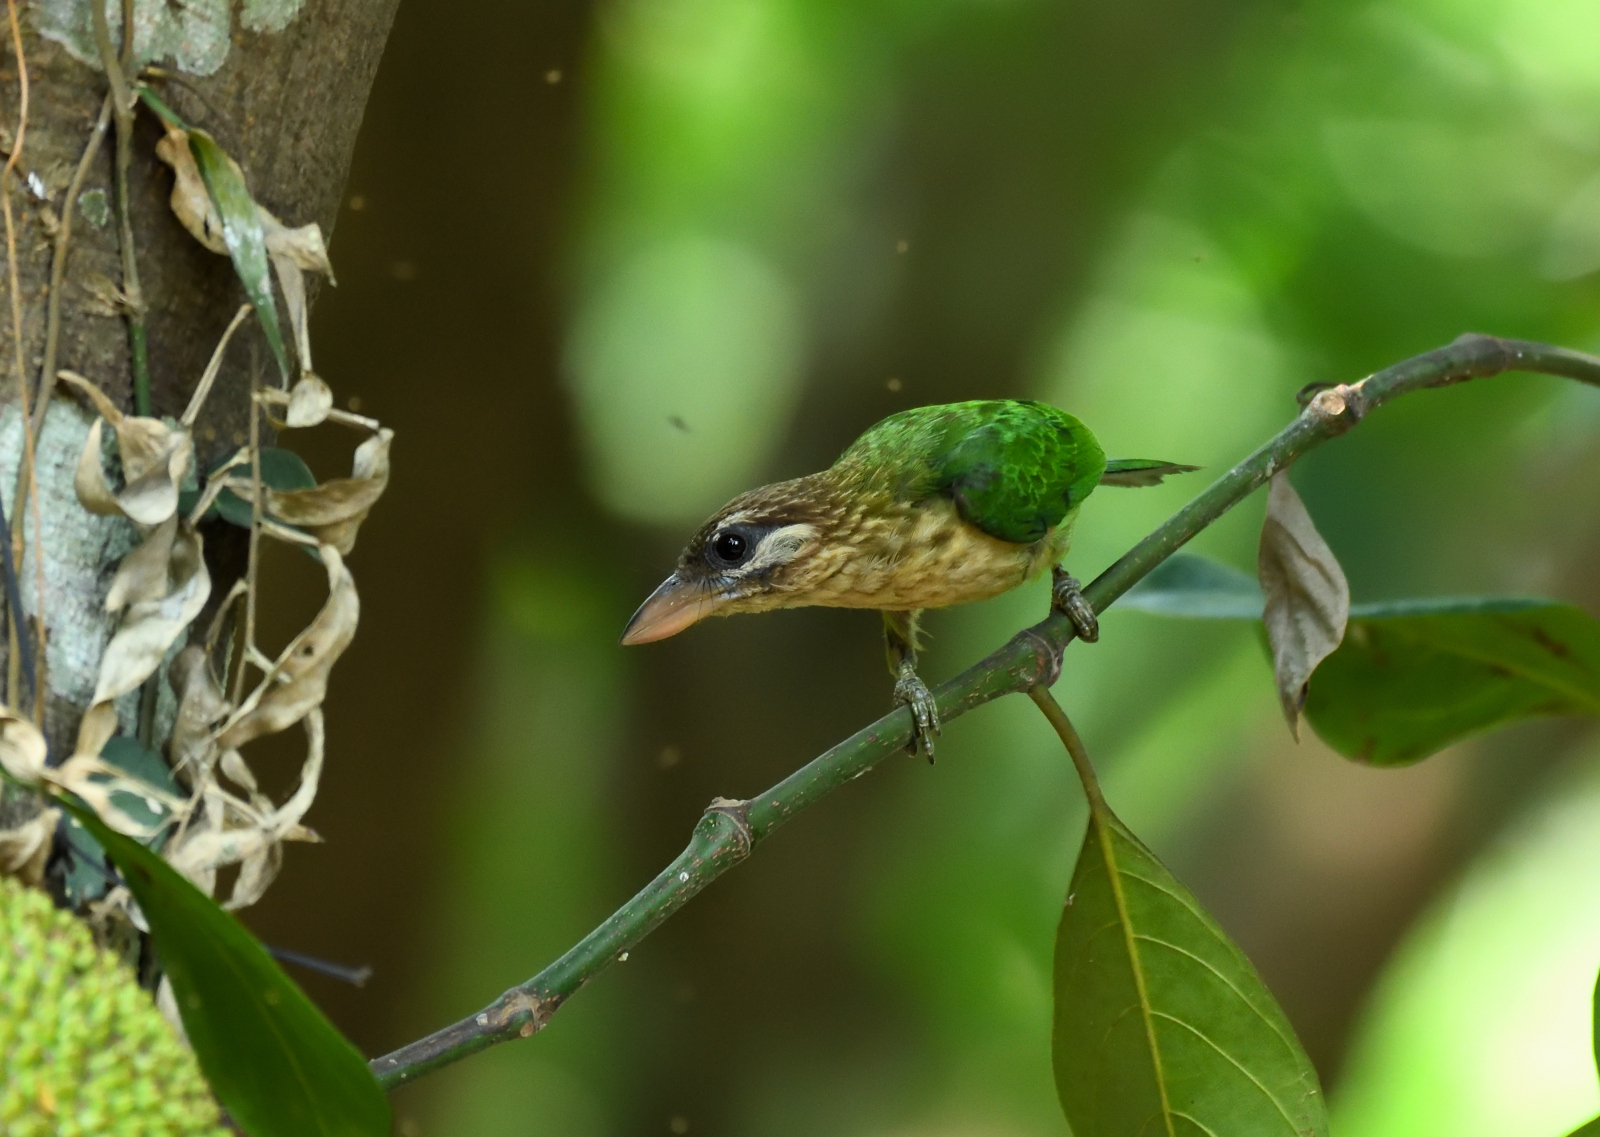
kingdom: Animalia
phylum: Chordata
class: Aves
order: Piciformes
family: Megalaimidae
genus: Psilopogon
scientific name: Psilopogon viridis
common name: White-cheeked barbet
